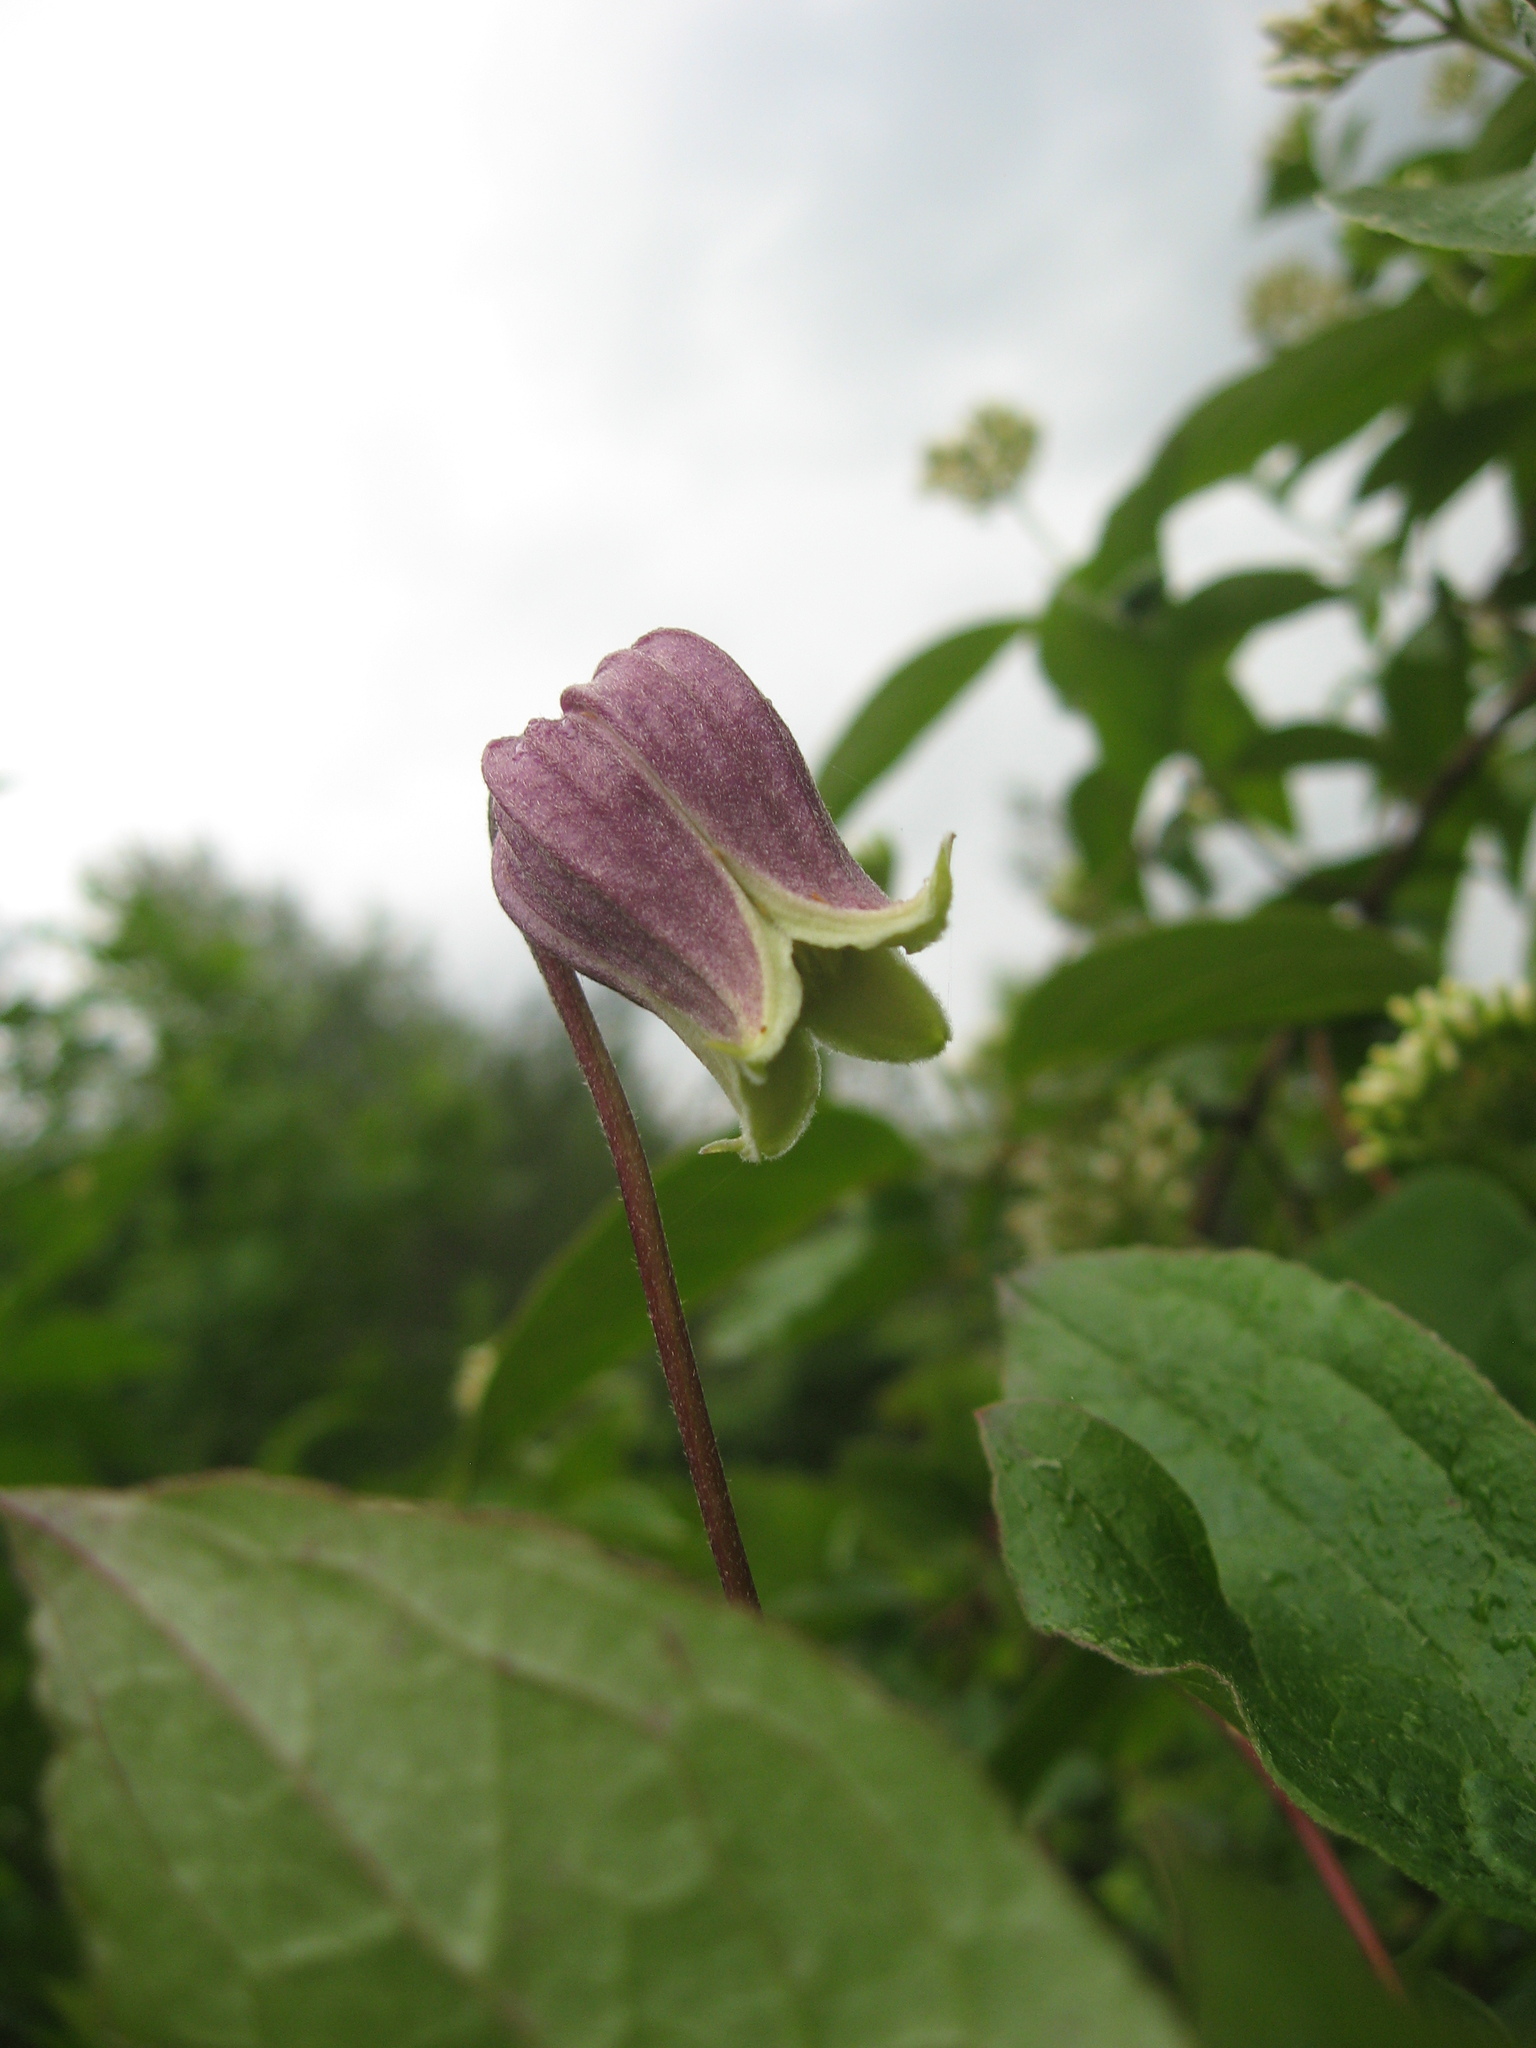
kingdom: Plantae
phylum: Tracheophyta
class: Magnoliopsida
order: Ranunculales
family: Ranunculaceae
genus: Clematis
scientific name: Clematis cumberlandensis
